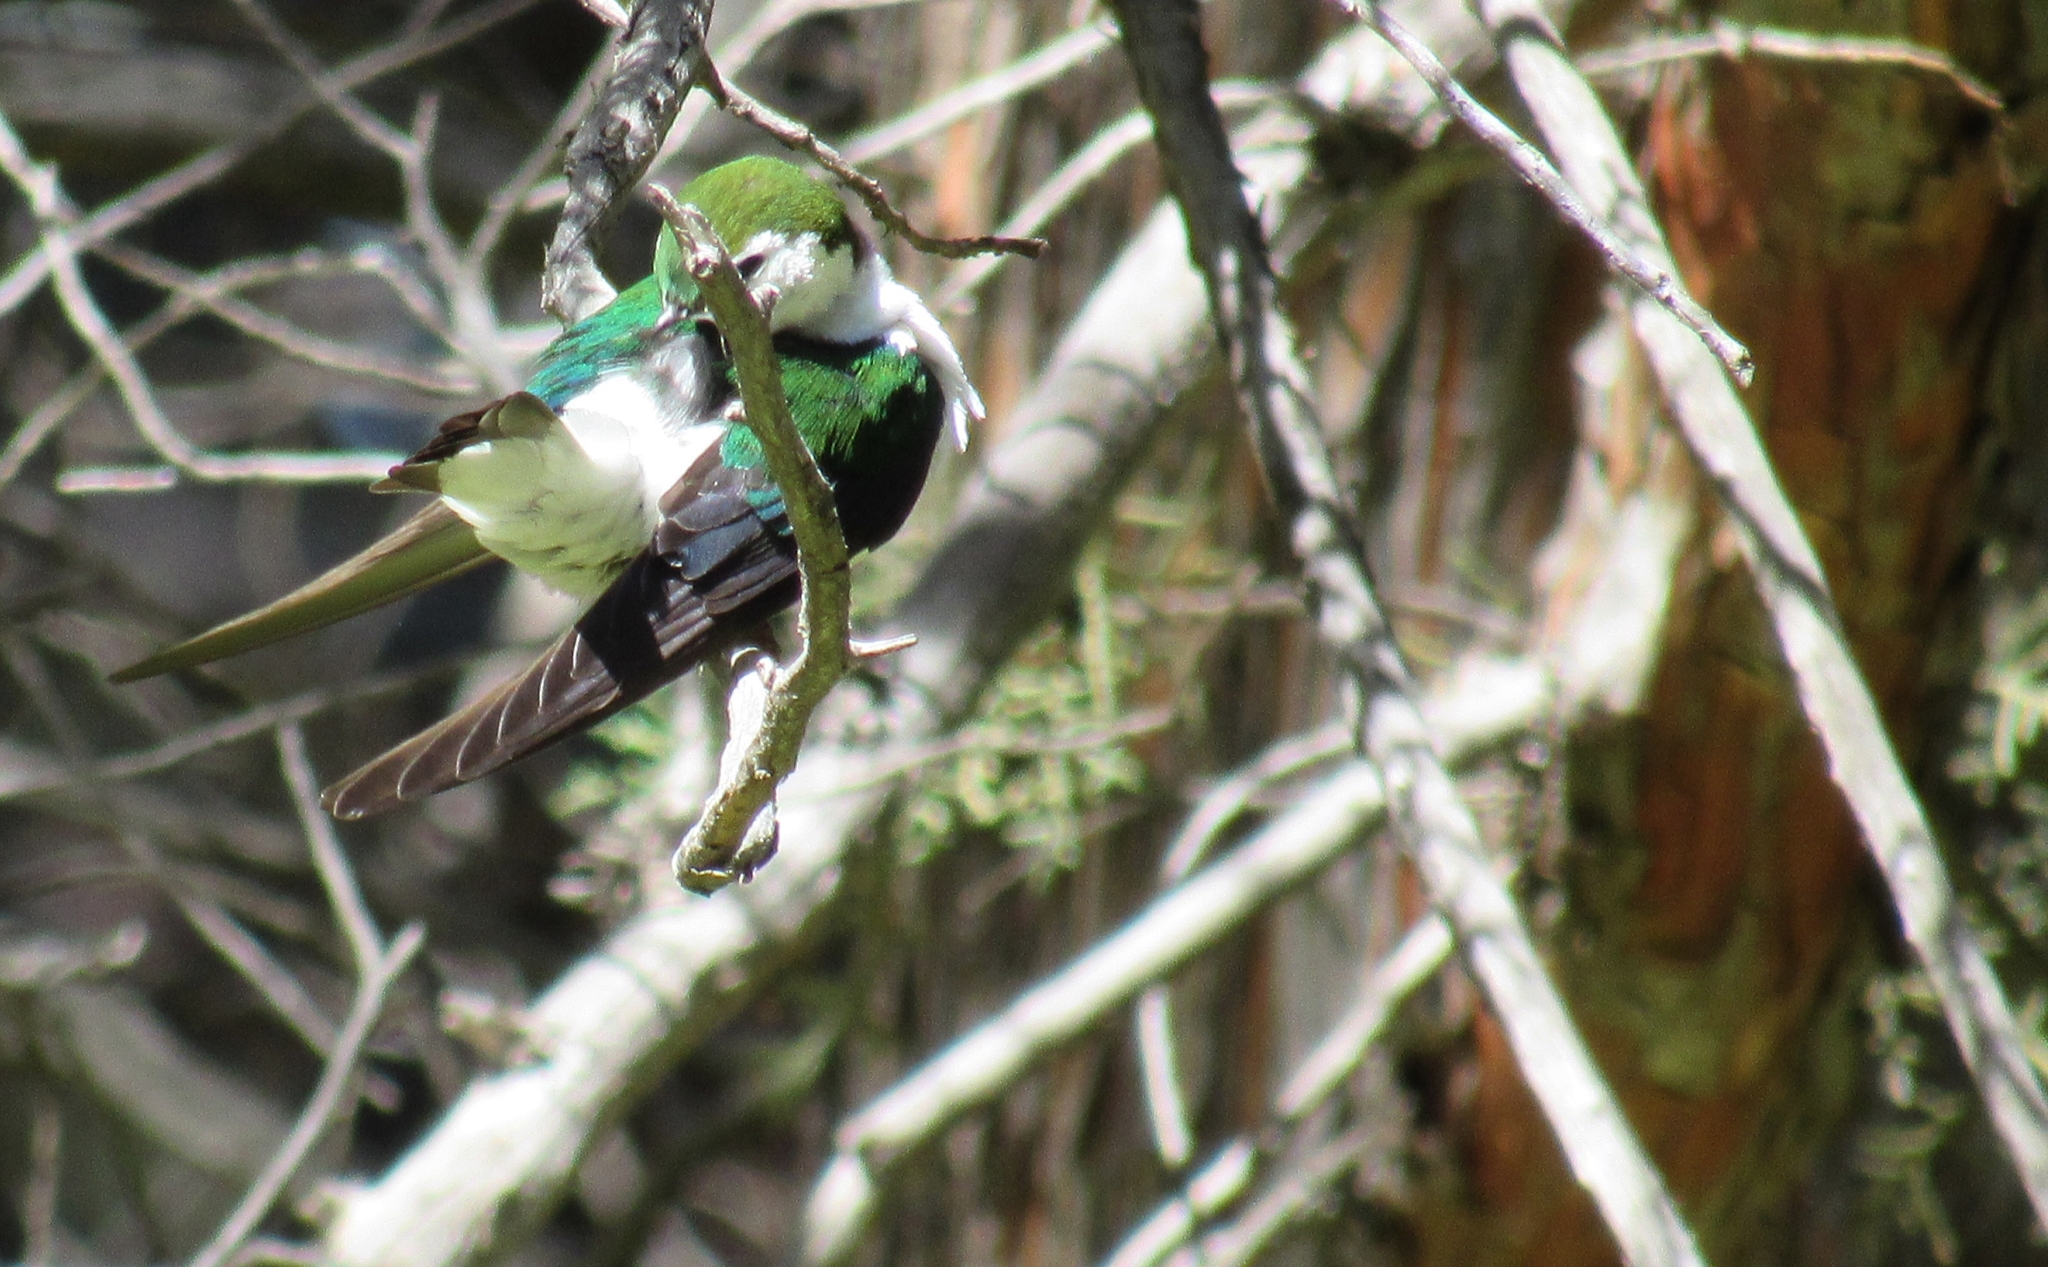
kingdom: Animalia
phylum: Chordata
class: Aves
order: Passeriformes
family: Hirundinidae
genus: Tachycineta
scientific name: Tachycineta thalassina
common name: Violet-green swallow
